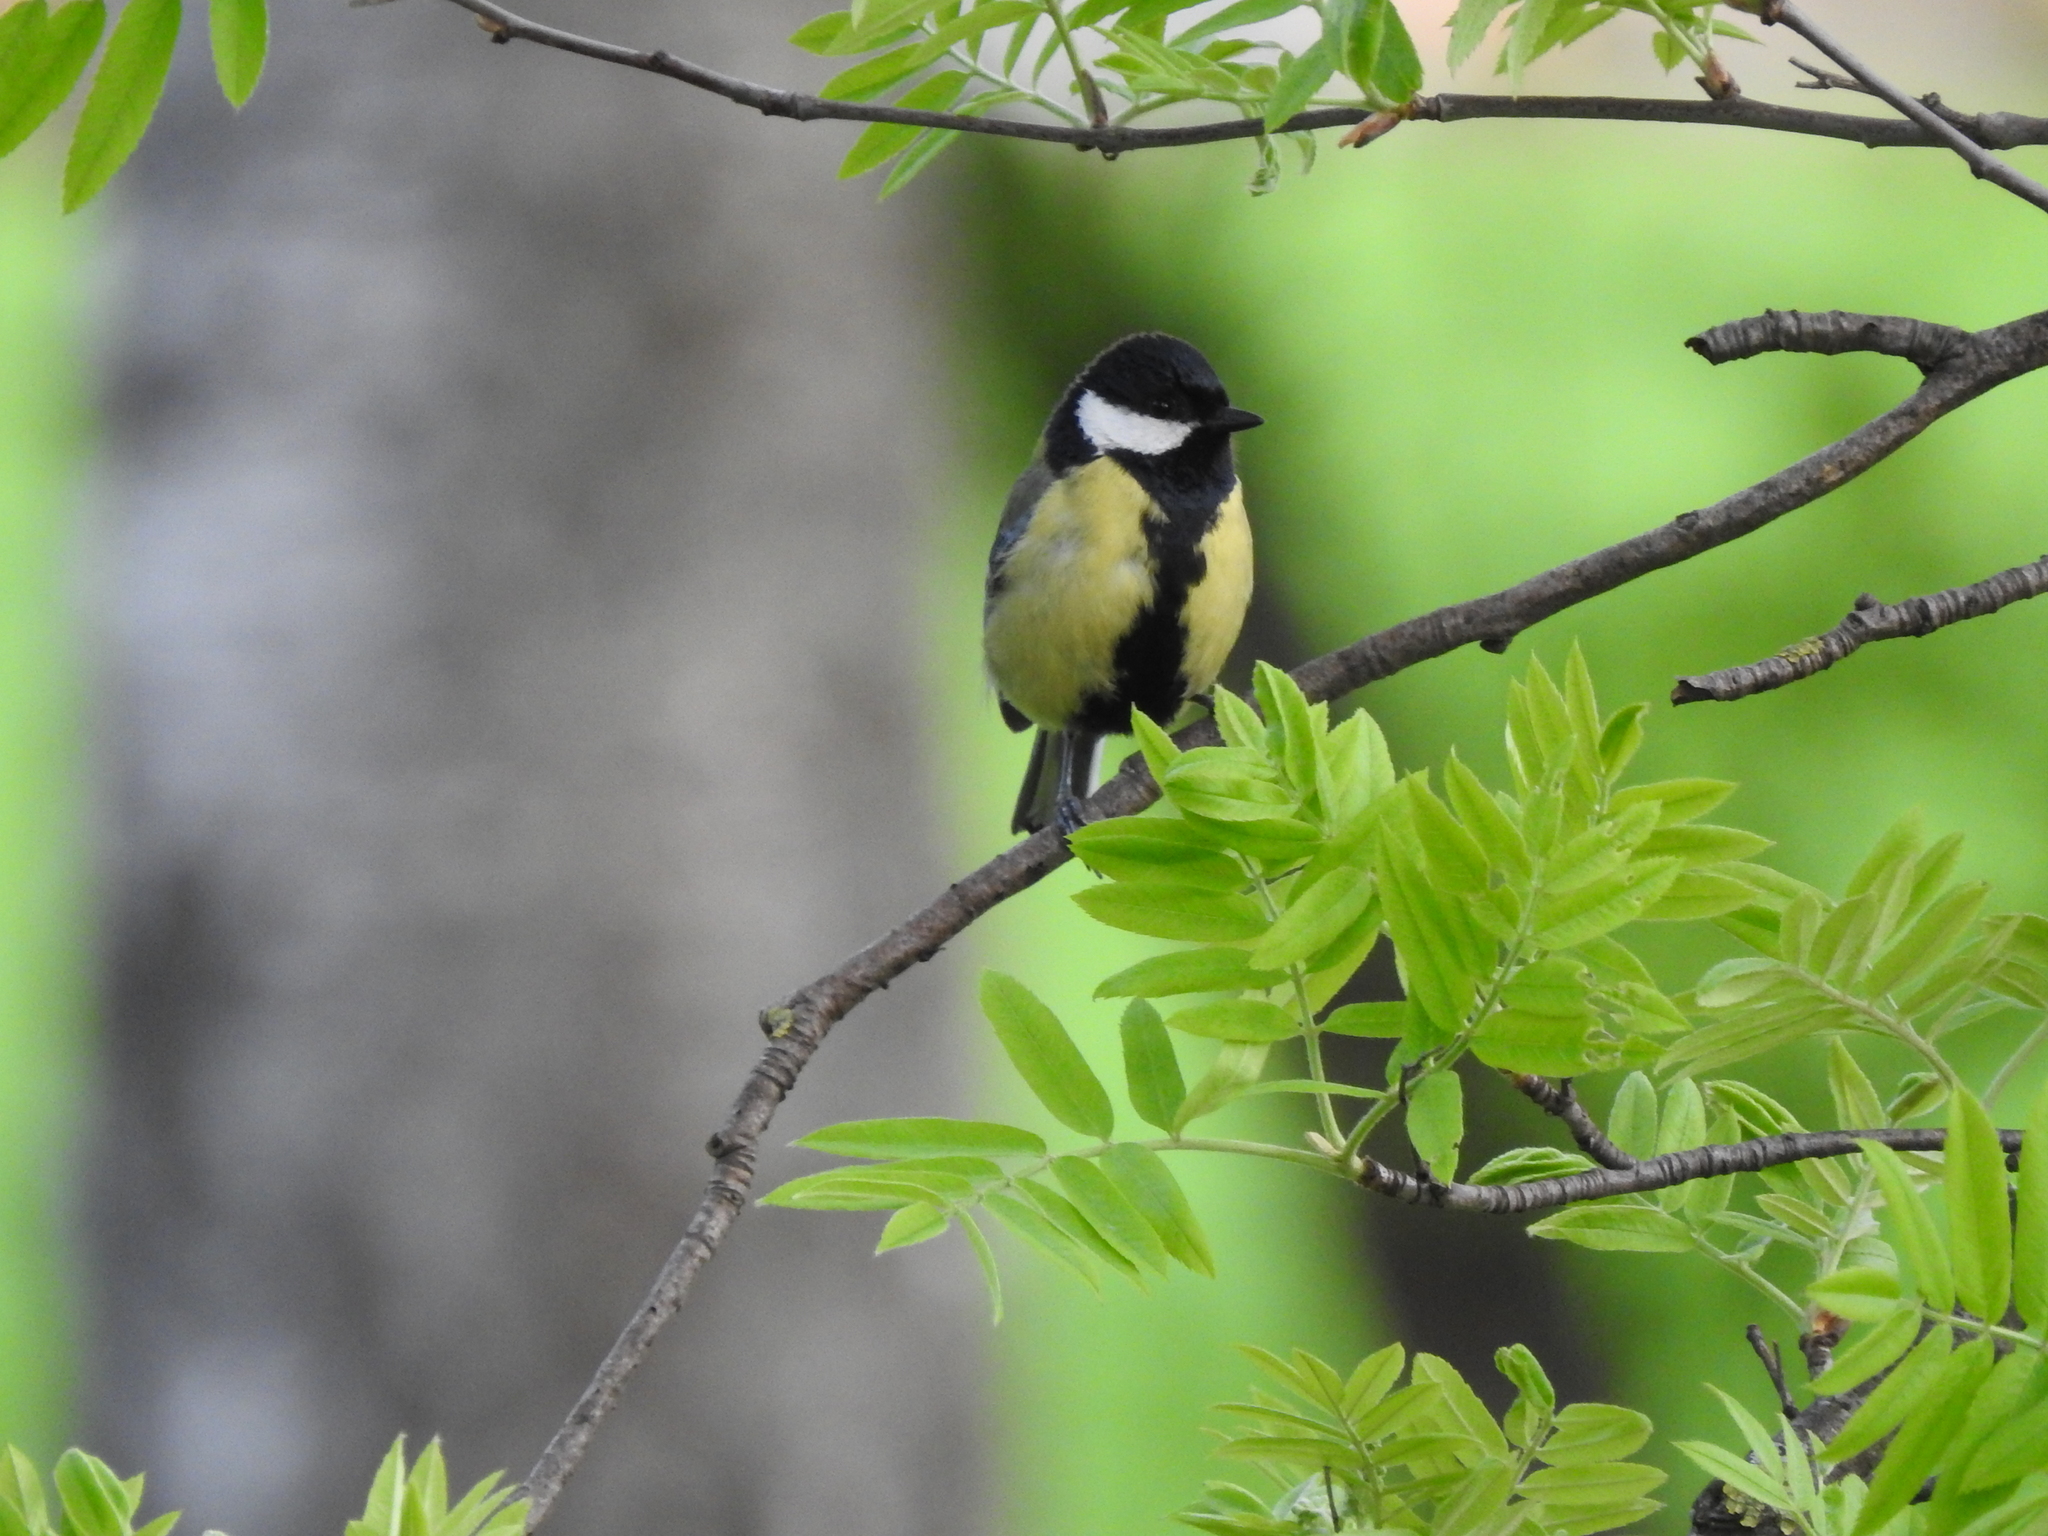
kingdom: Animalia
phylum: Chordata
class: Aves
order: Passeriformes
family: Paridae
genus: Parus
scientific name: Parus major
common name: Great tit
